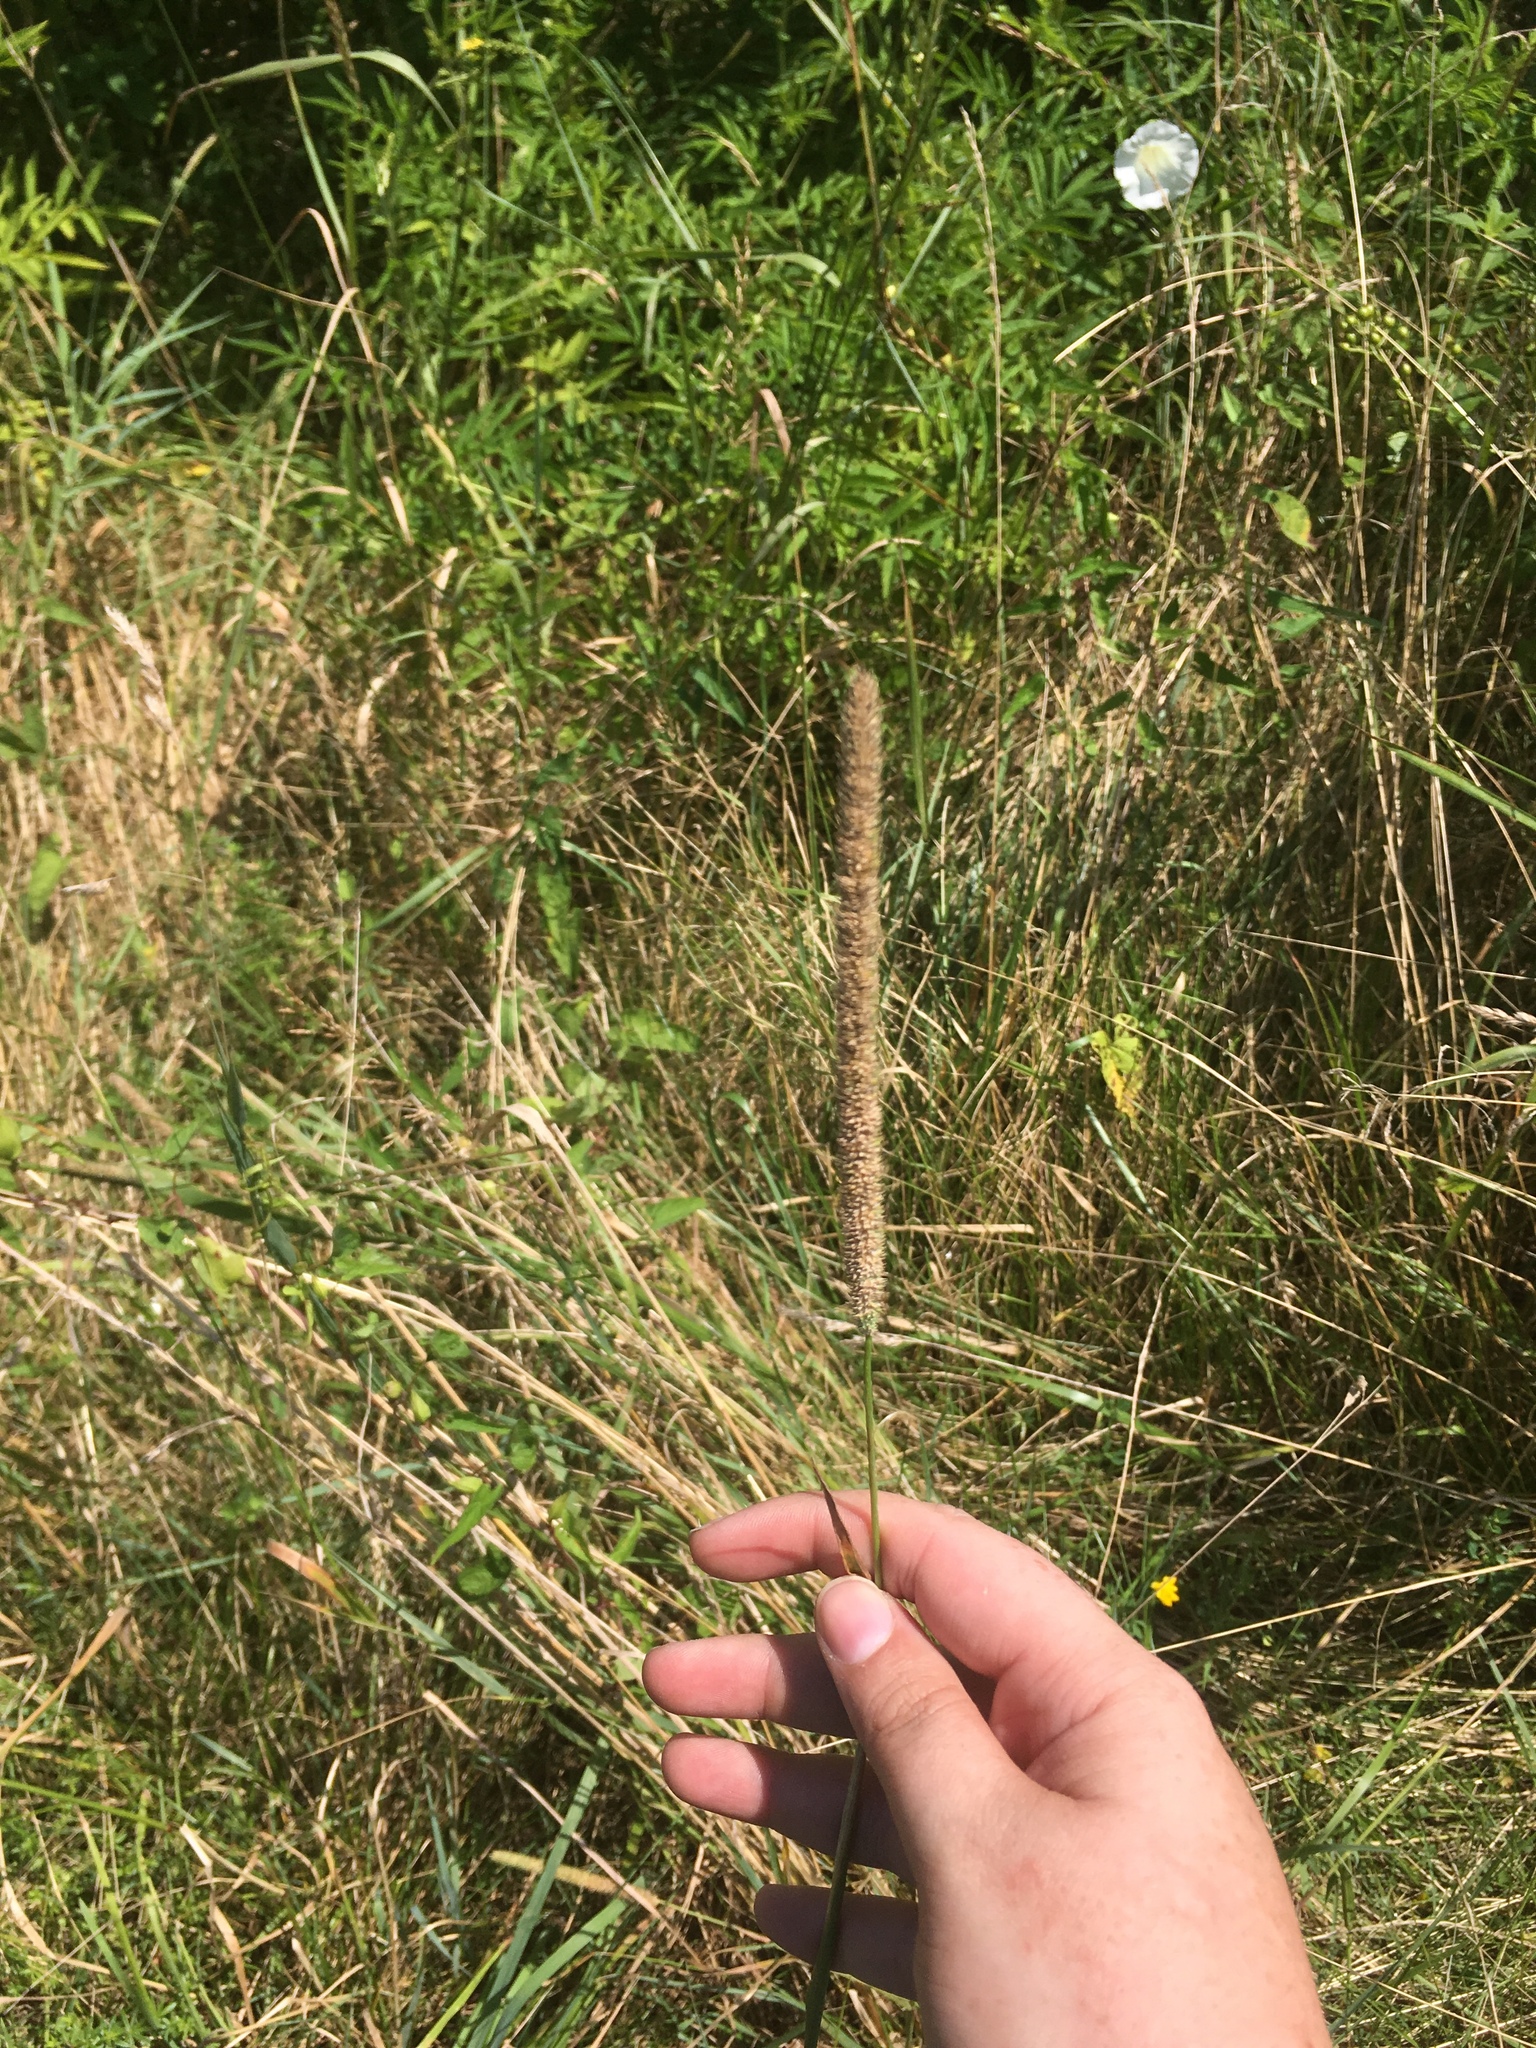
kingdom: Plantae
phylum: Tracheophyta
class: Liliopsida
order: Poales
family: Poaceae
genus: Phleum
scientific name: Phleum pratense
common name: Timothy grass
